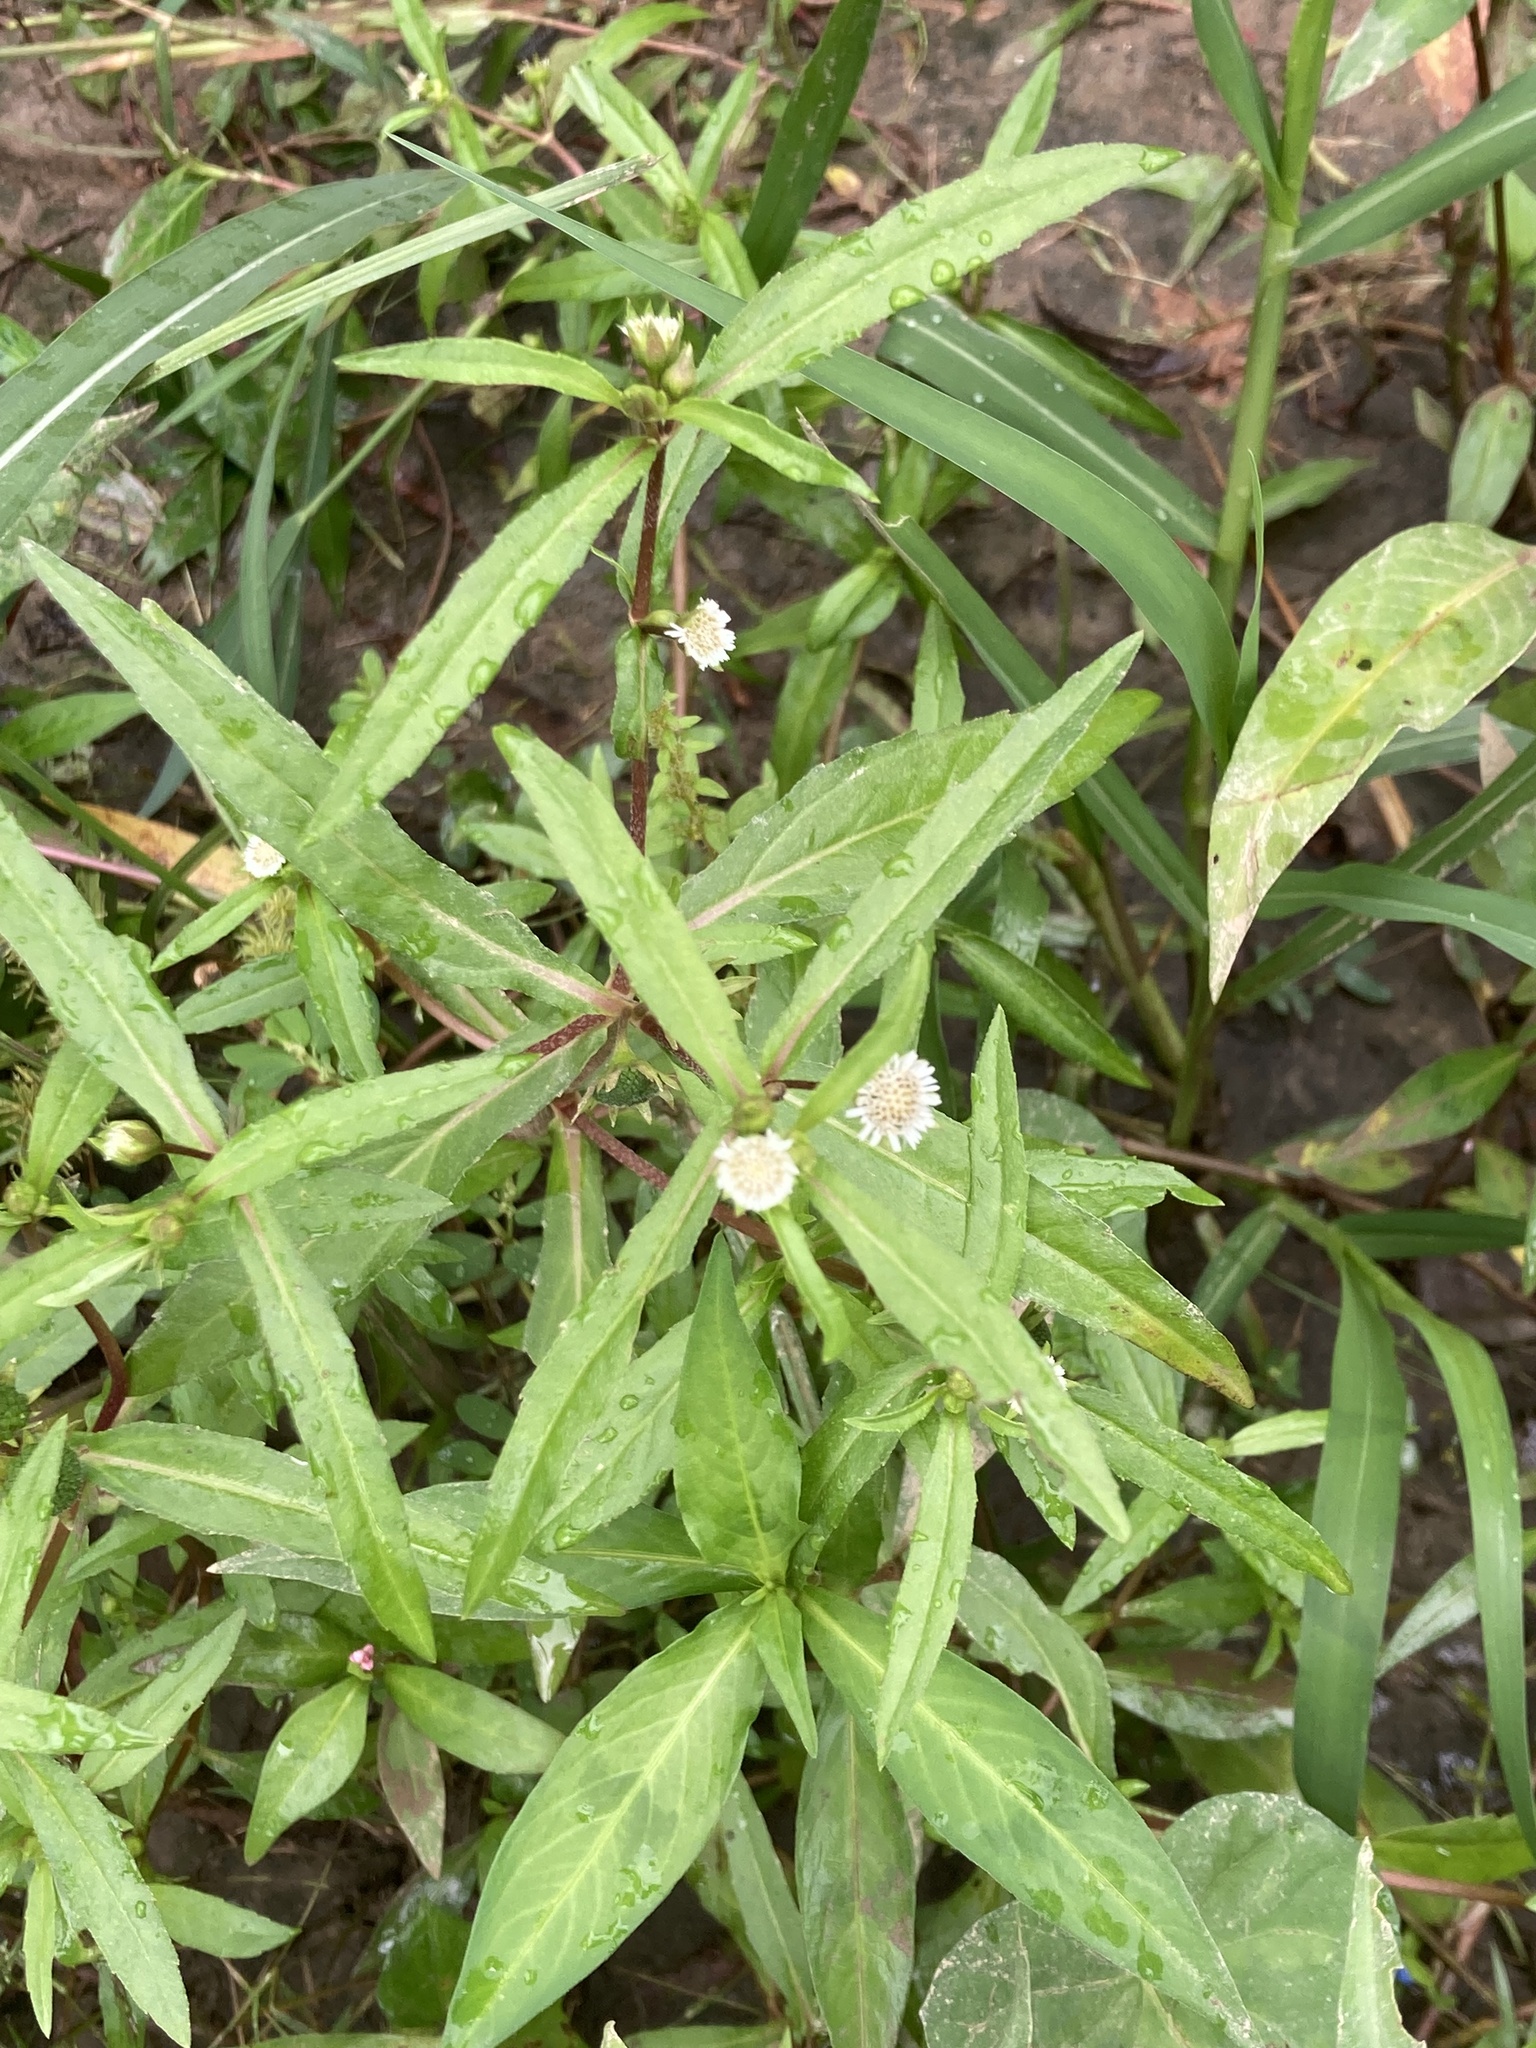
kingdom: Plantae
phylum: Tracheophyta
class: Magnoliopsida
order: Asterales
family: Asteraceae
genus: Eclipta
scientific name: Eclipta prostrata
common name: False daisy
